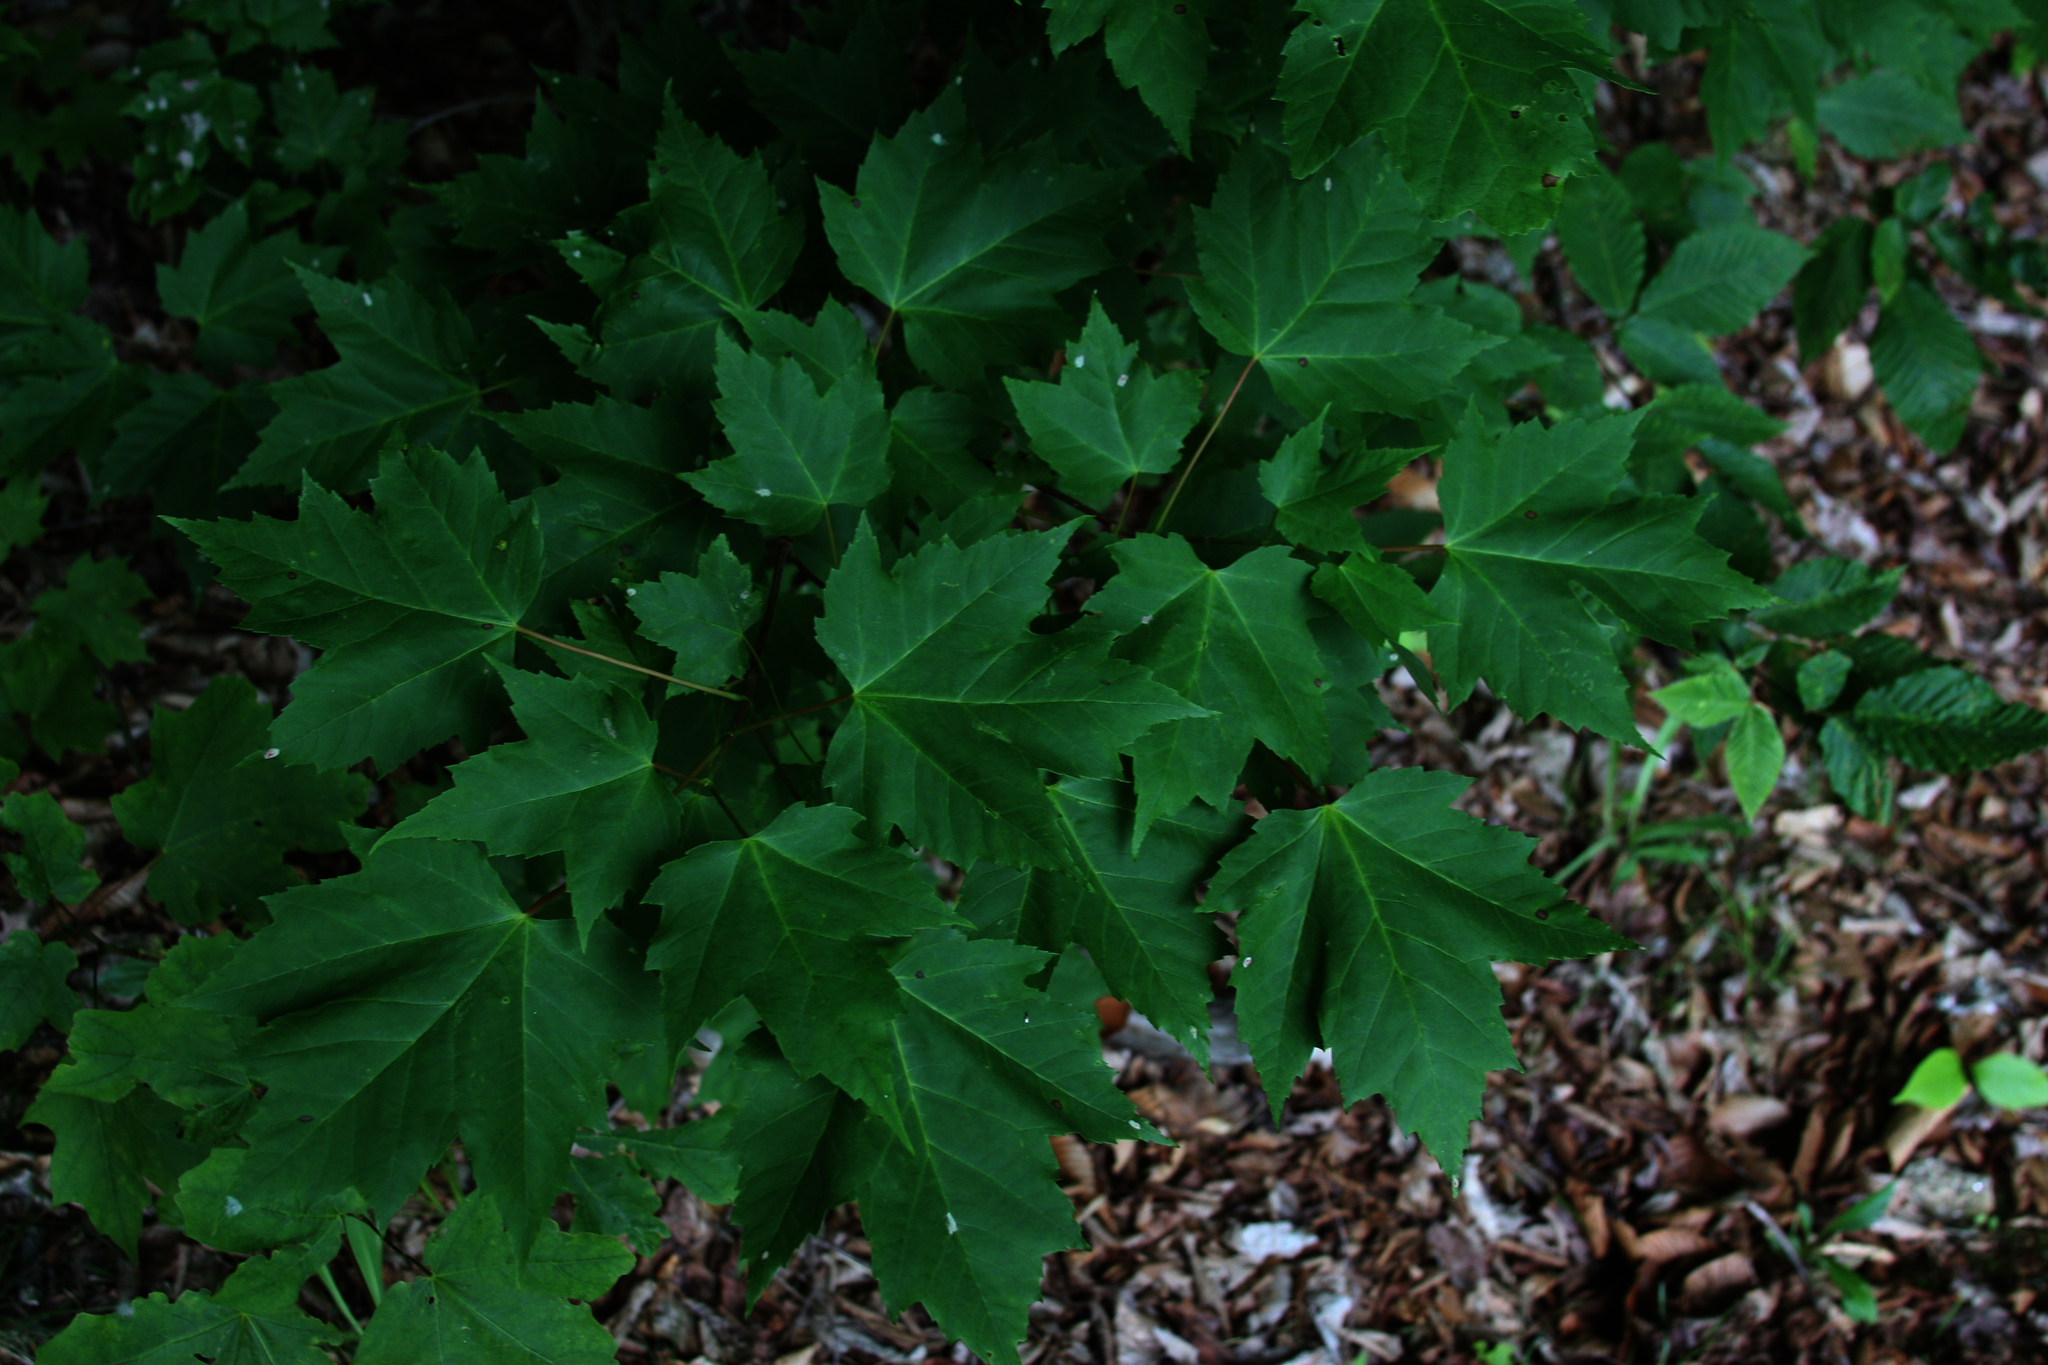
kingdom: Plantae
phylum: Tracheophyta
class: Magnoliopsida
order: Sapindales
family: Sapindaceae
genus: Acer
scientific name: Acer rubrum
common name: Red maple
